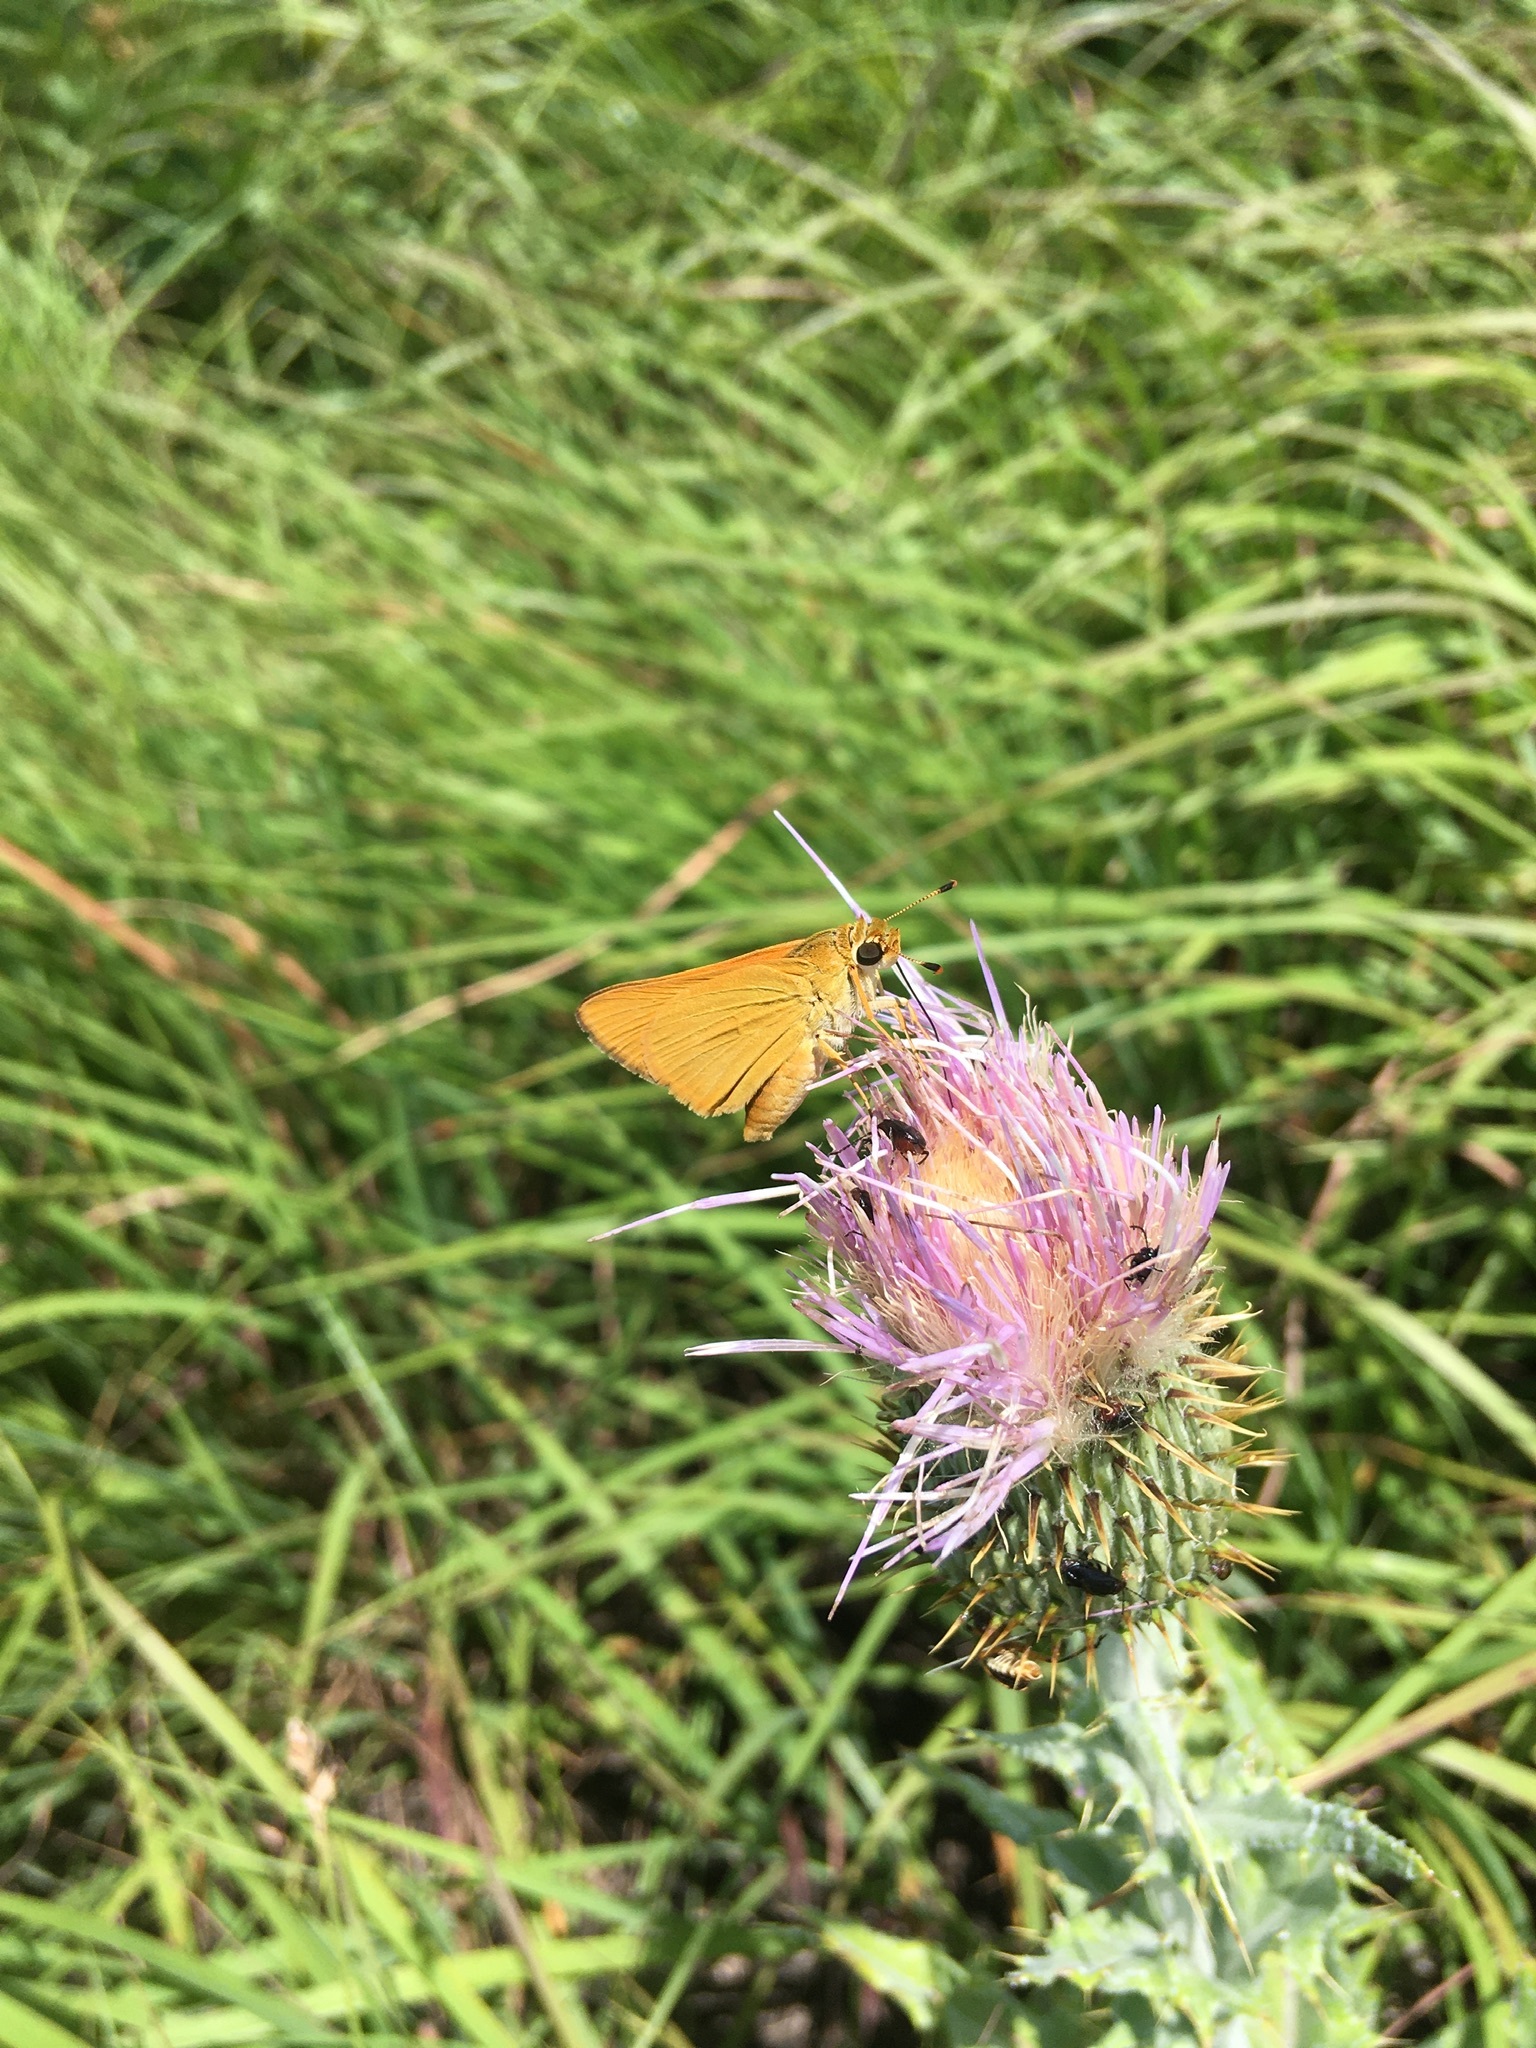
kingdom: Animalia
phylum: Arthropoda
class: Insecta
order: Lepidoptera
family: Hesperiidae
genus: Atrytone
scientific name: Atrytone delaware
